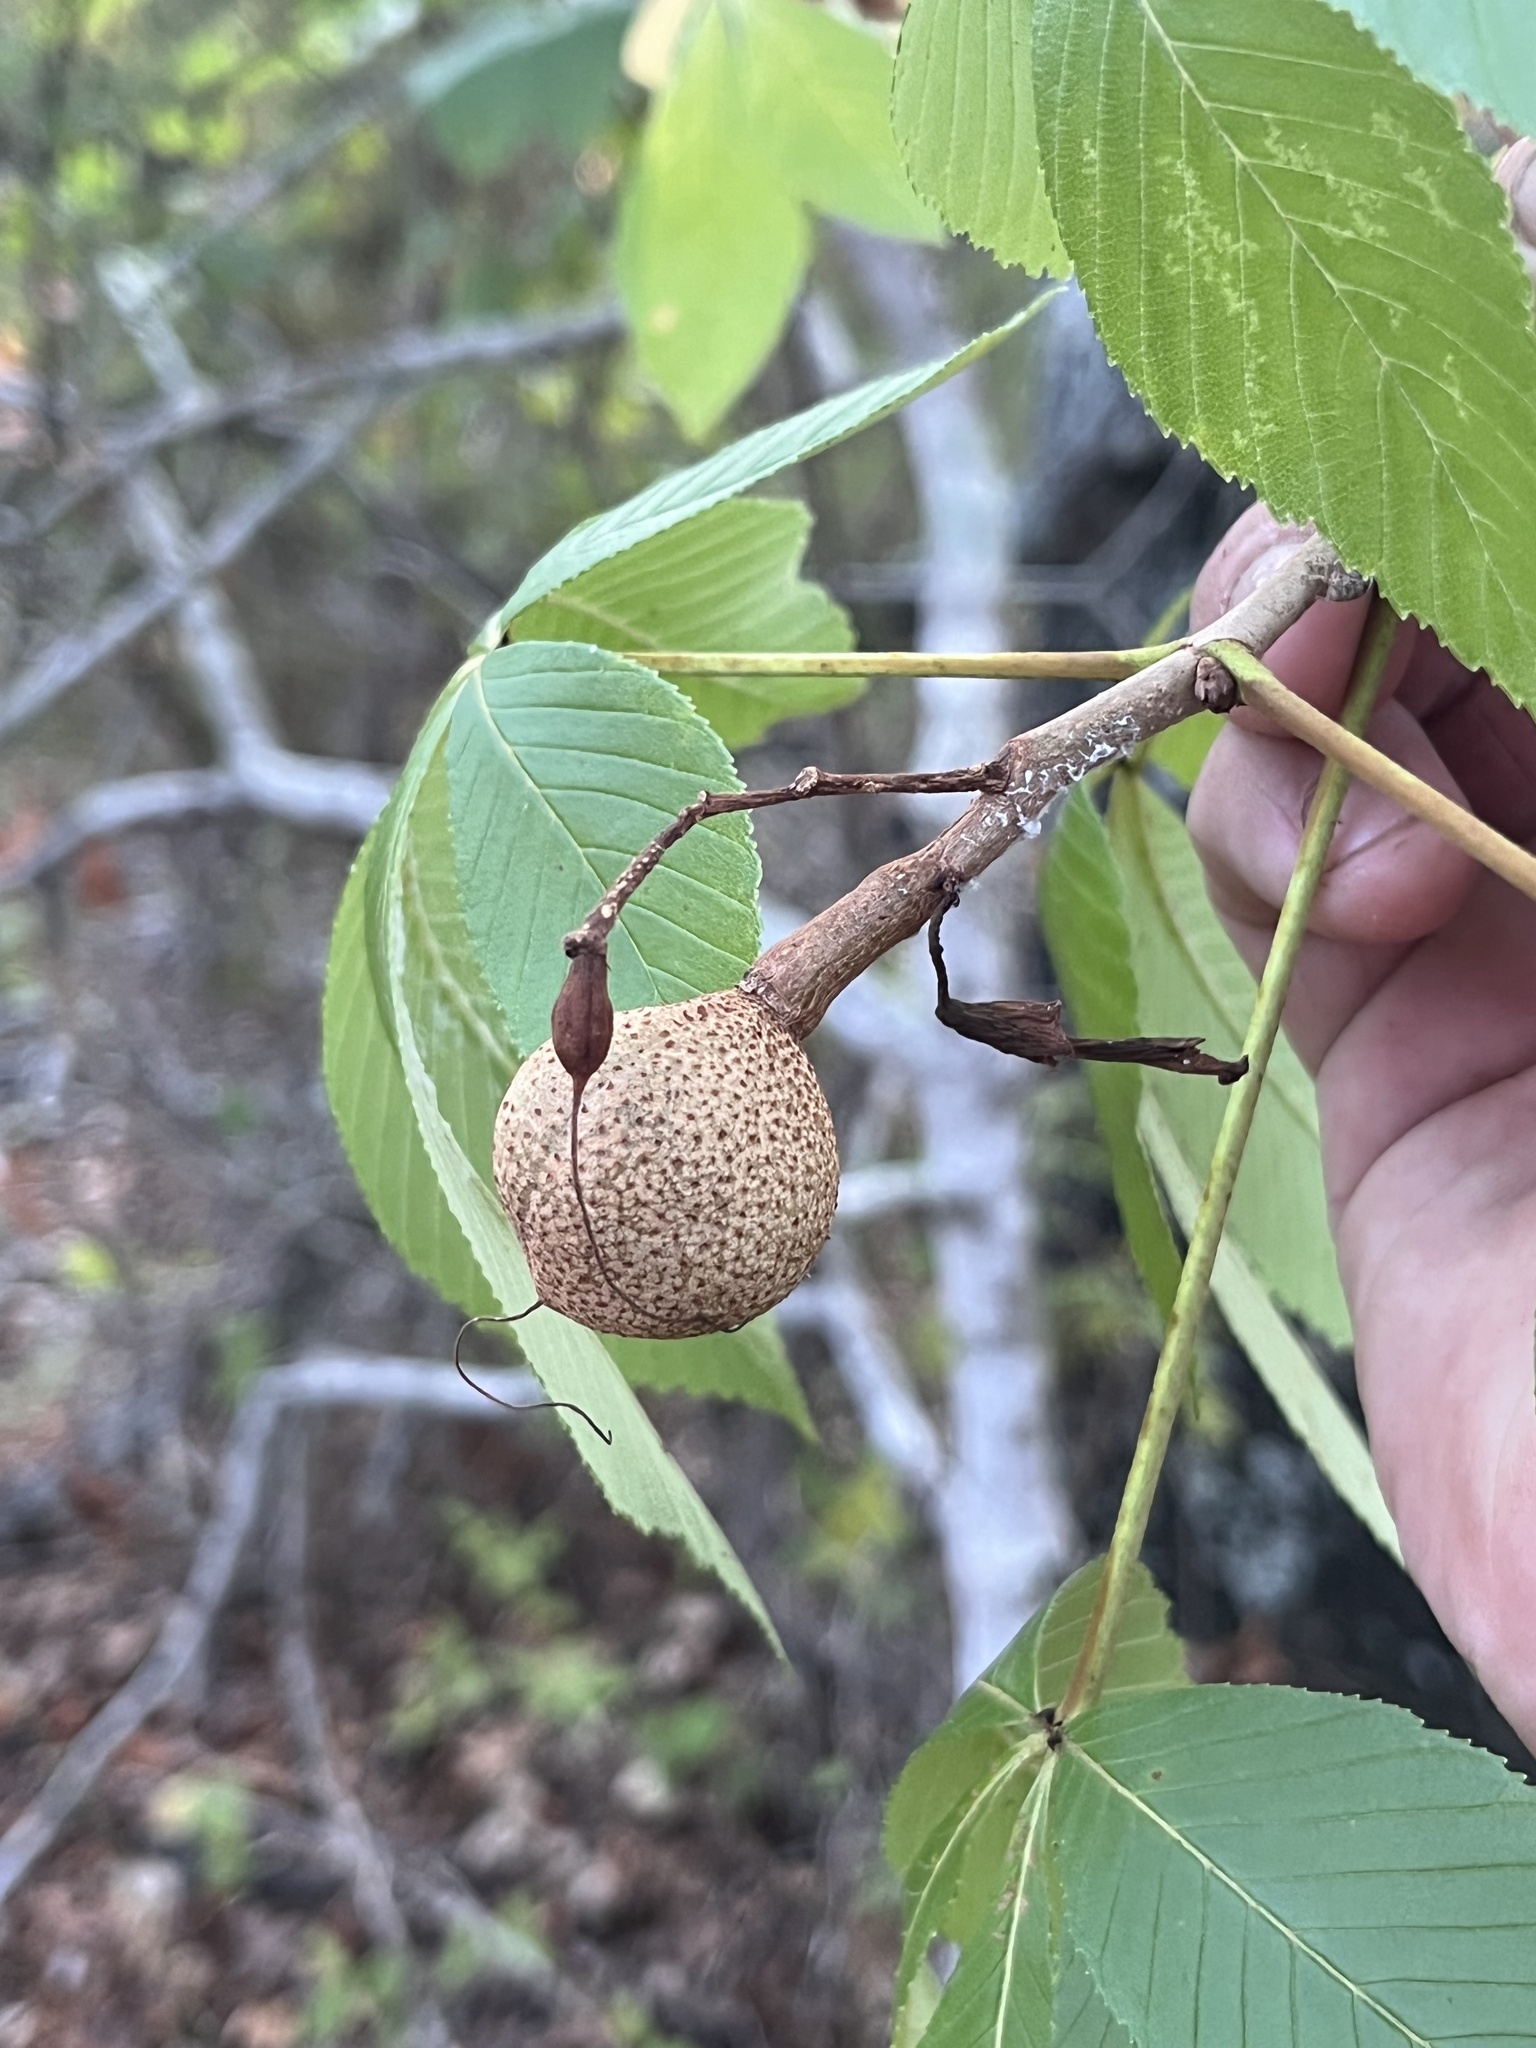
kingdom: Plantae
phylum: Tracheophyta
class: Magnoliopsida
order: Sapindales
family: Sapindaceae
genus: Aesculus
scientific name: Aesculus pavia
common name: Red buckeye
